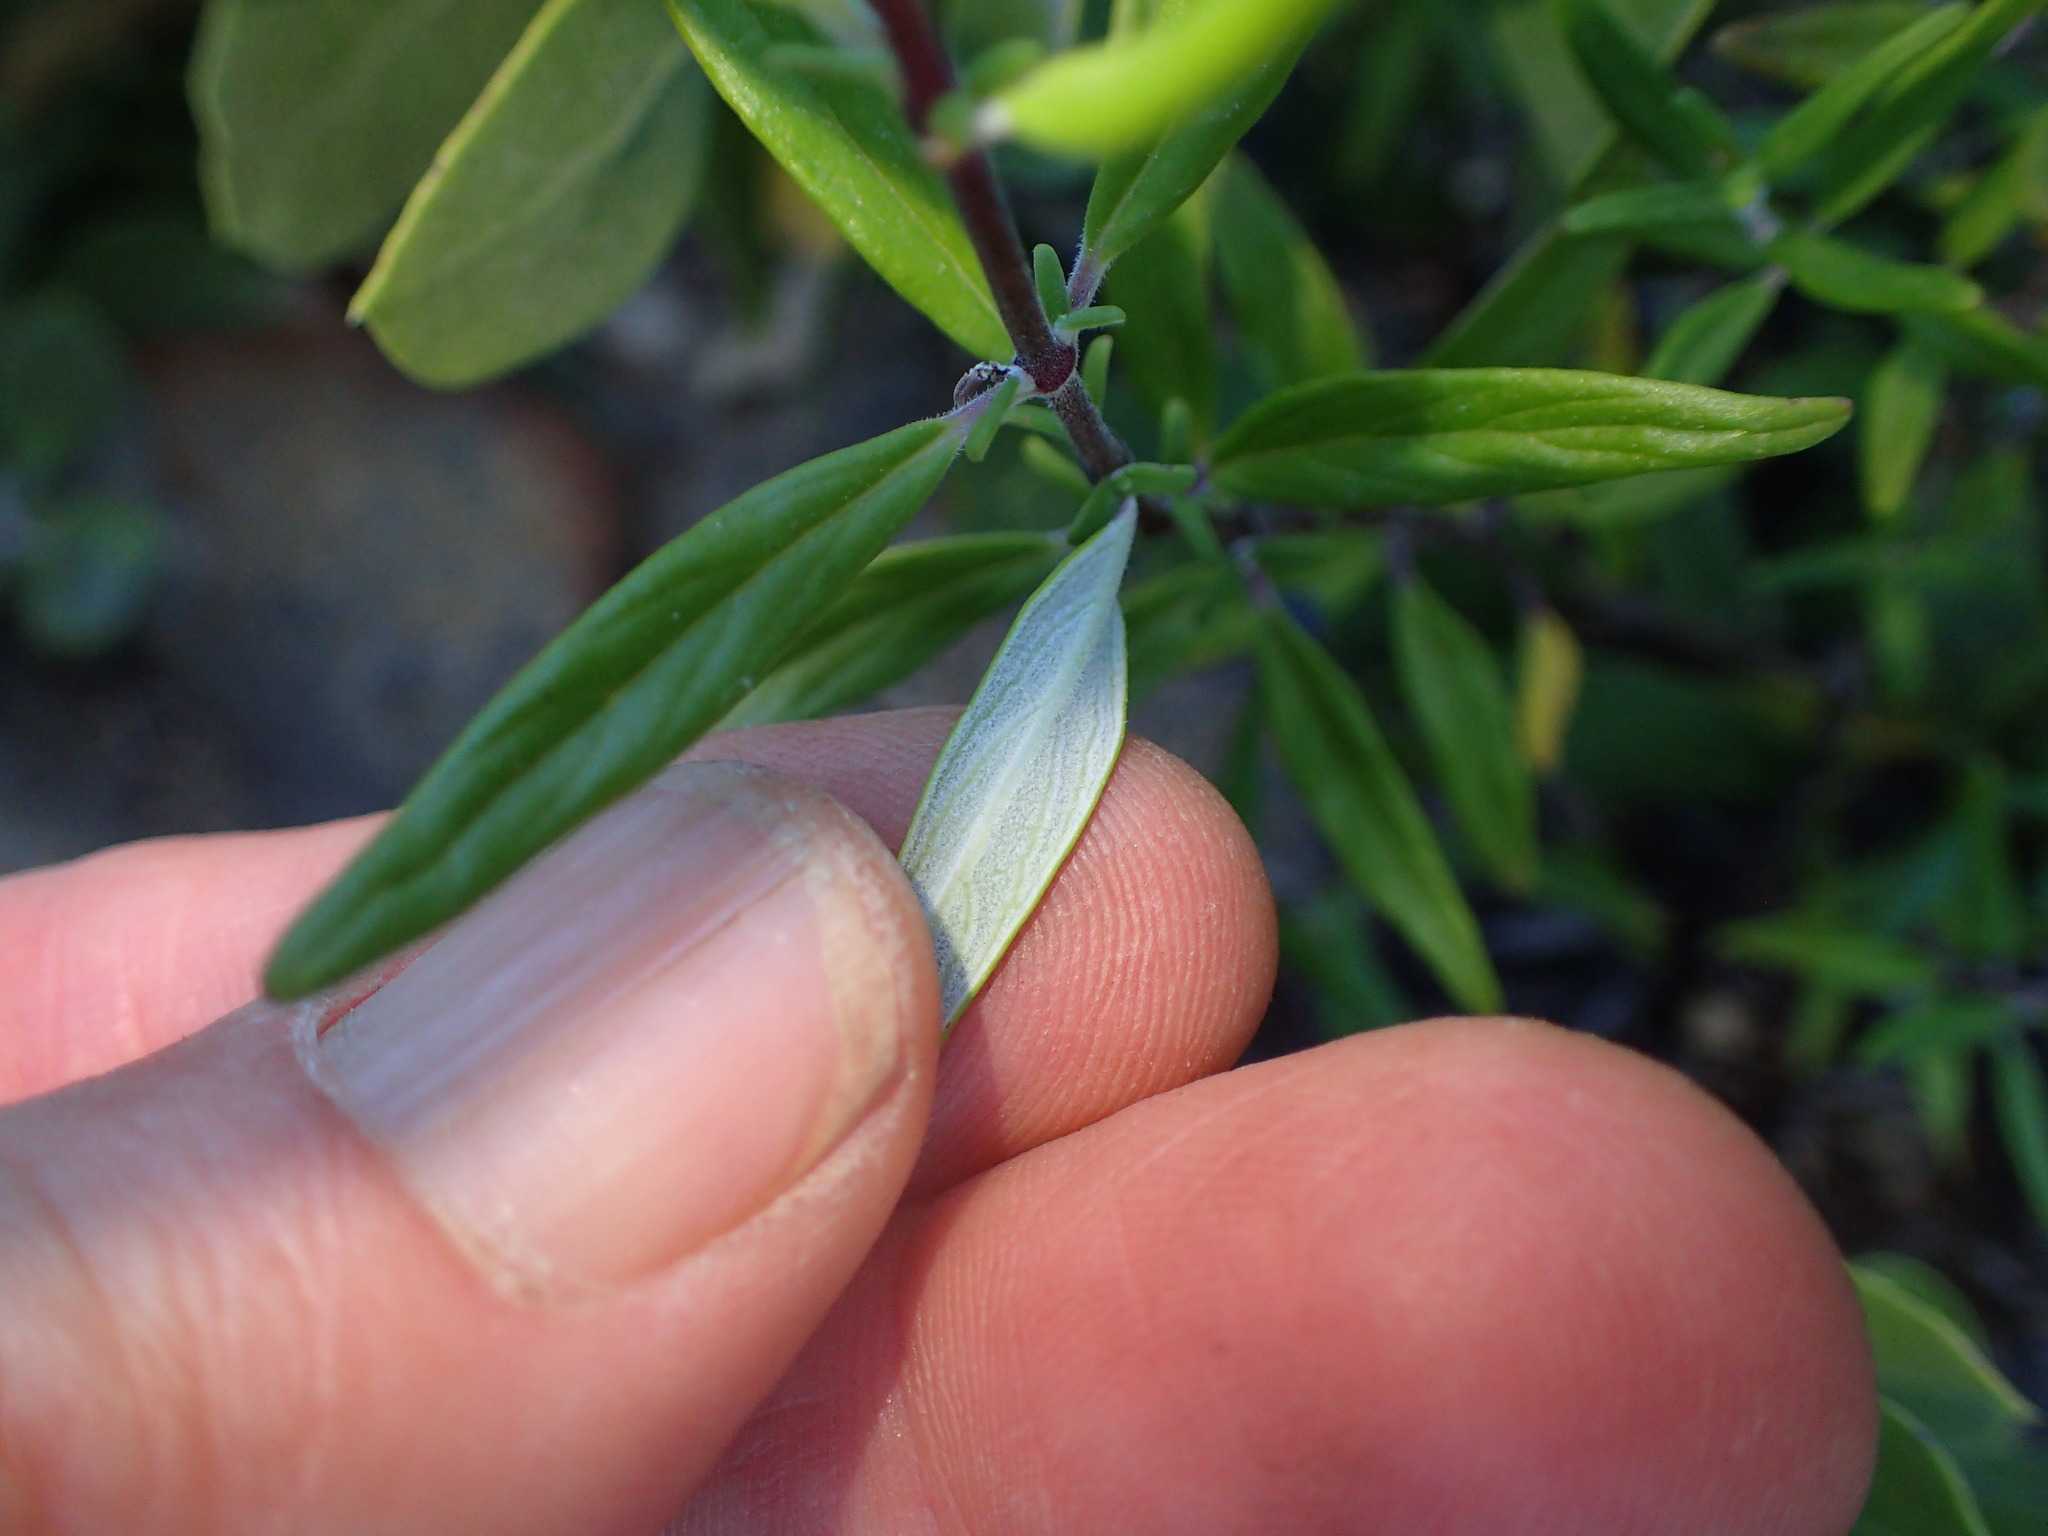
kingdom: Plantae
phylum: Tracheophyta
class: Magnoliopsida
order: Lamiales
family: Lamiaceae
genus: Monardella
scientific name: Monardella hypoleuca
